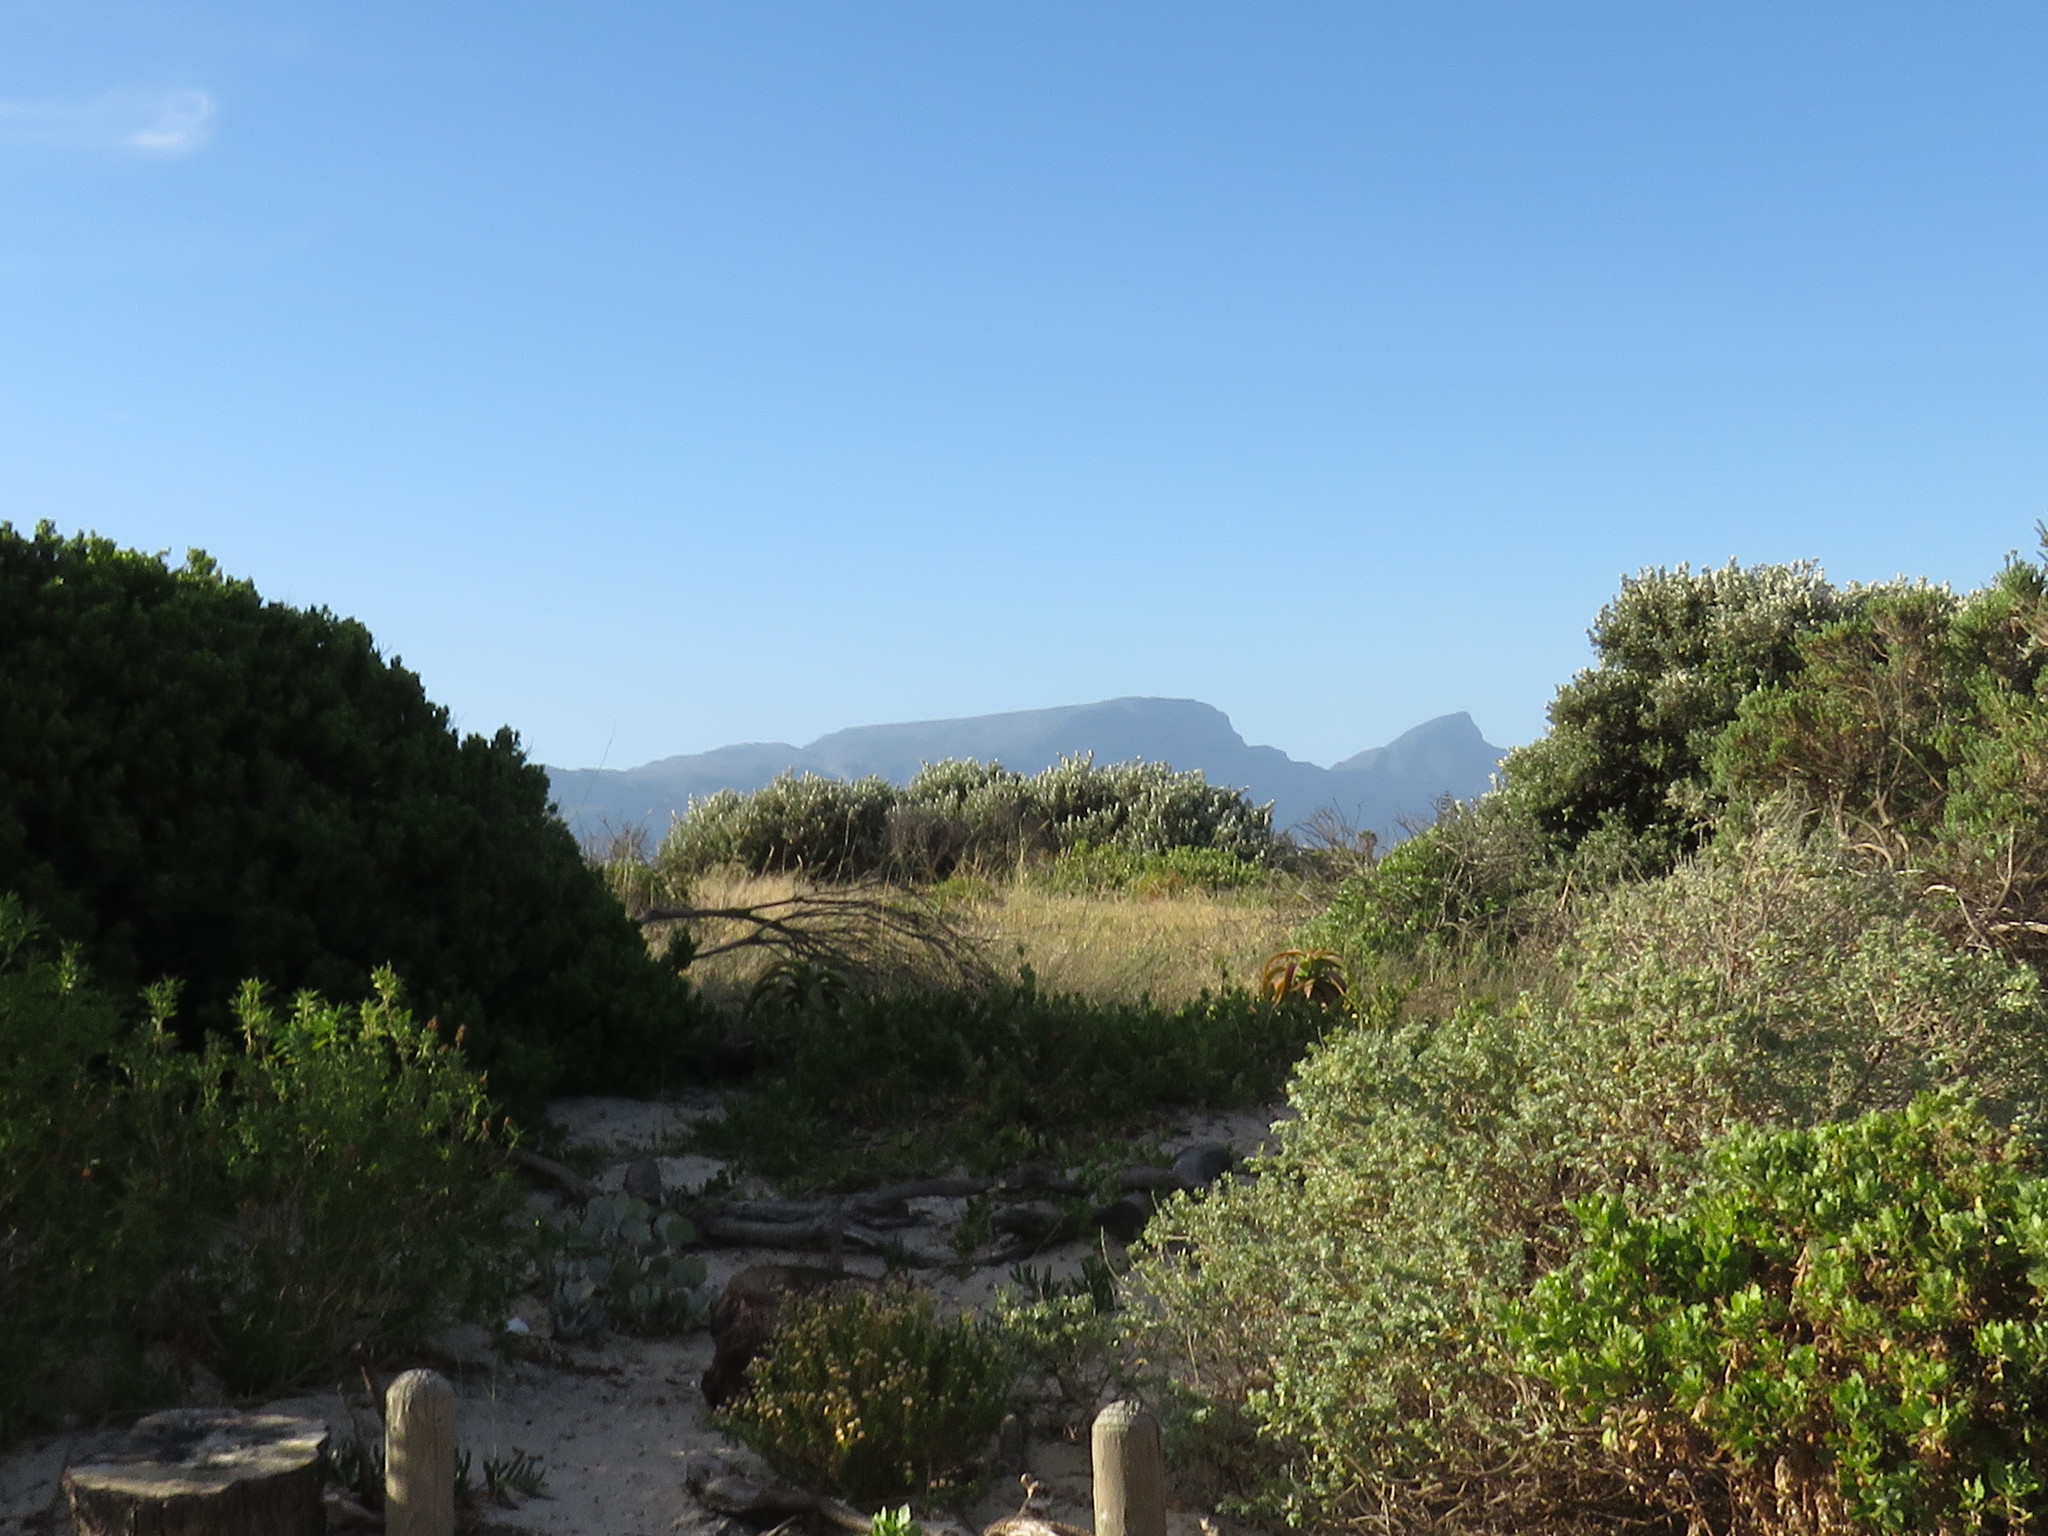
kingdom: Plantae
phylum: Tracheophyta
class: Magnoliopsida
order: Lamiales
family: Lamiaceae
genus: Salvia
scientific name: Salvia aurea
